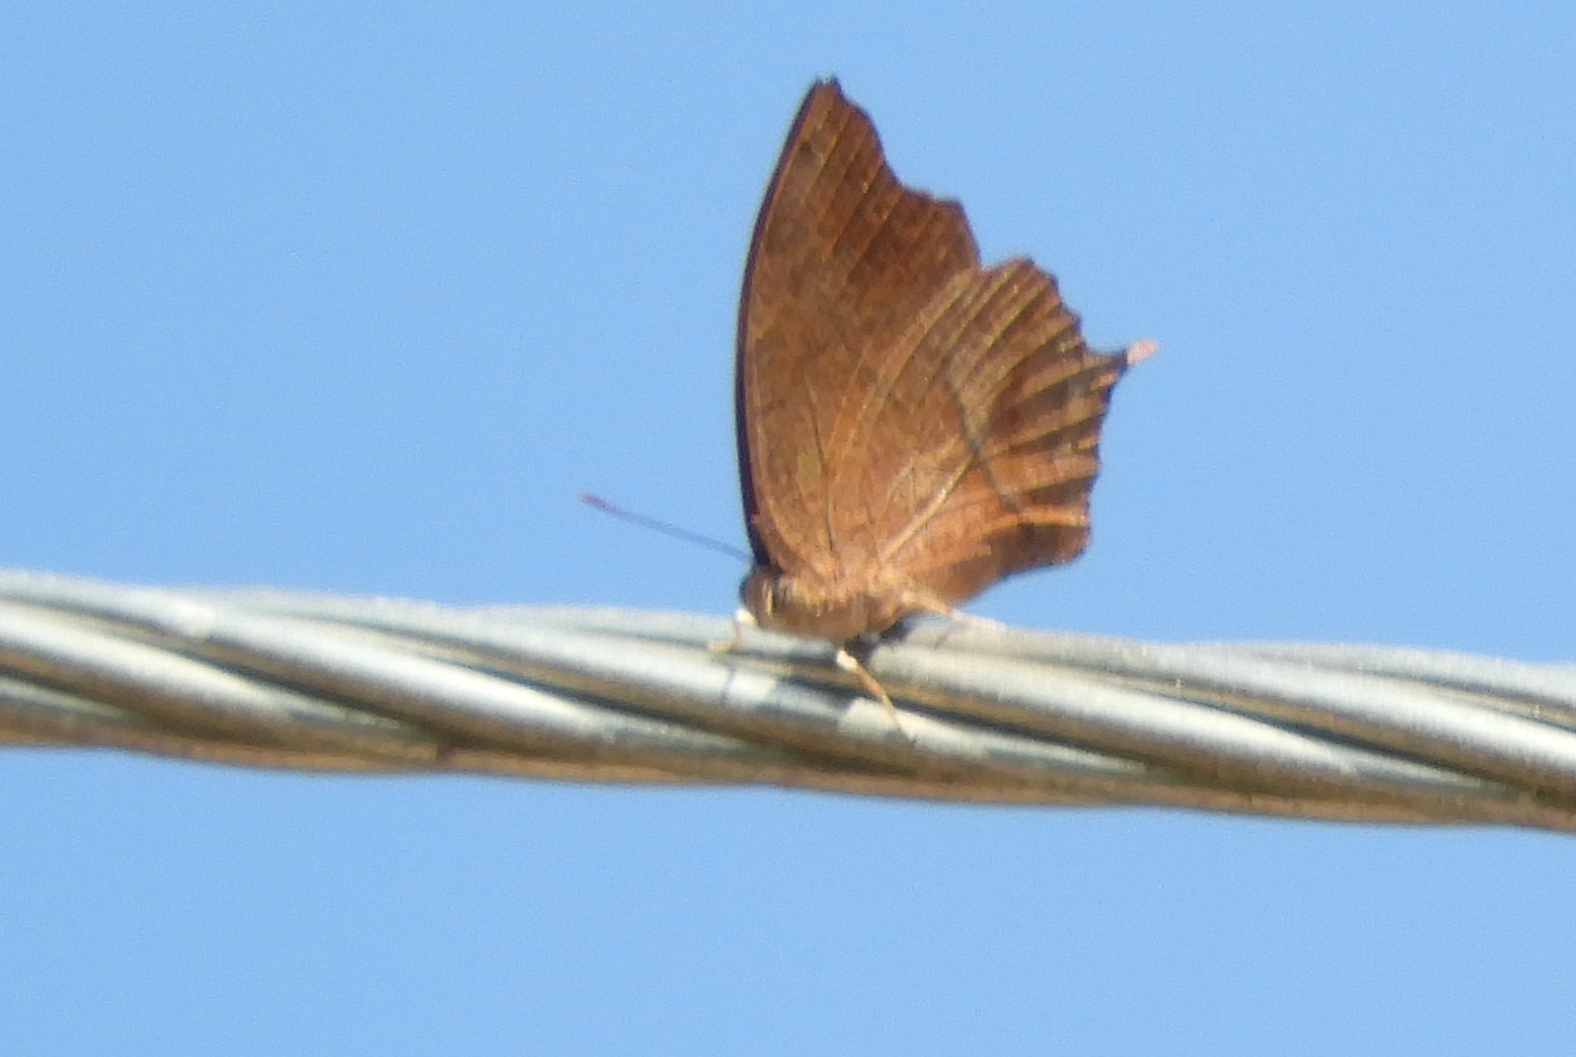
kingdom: Animalia
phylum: Arthropoda
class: Insecta
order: Lepidoptera
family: Nymphalidae
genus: Fountainea
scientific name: Fountainea
